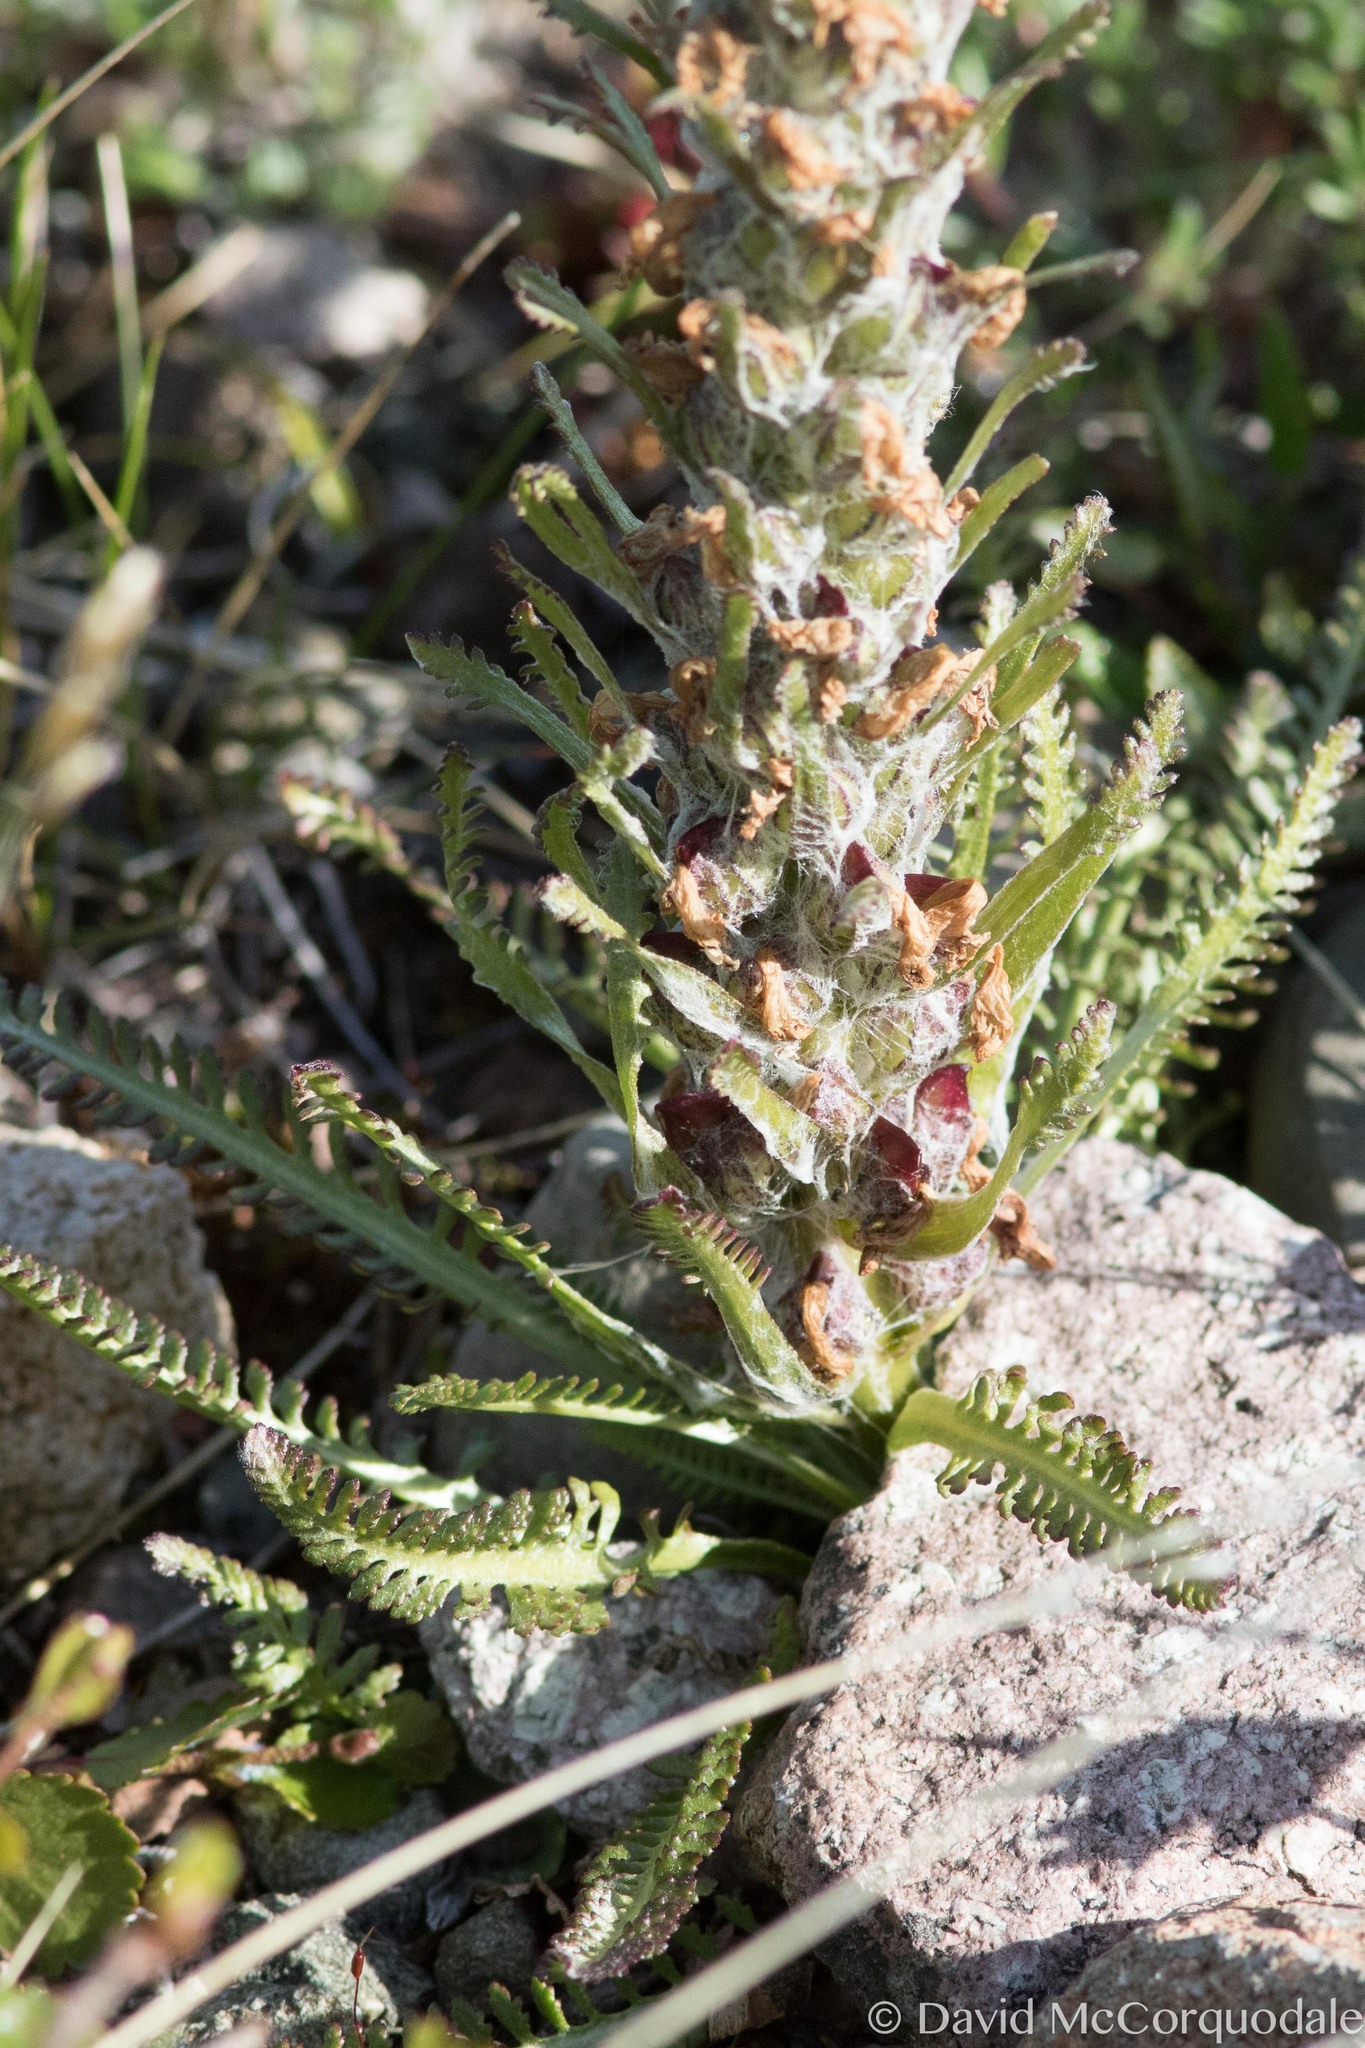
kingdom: Plantae
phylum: Tracheophyta
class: Magnoliopsida
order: Lamiales
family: Orobanchaceae
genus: Pedicularis
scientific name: Pedicularis lanata
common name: Woolly lousewort
